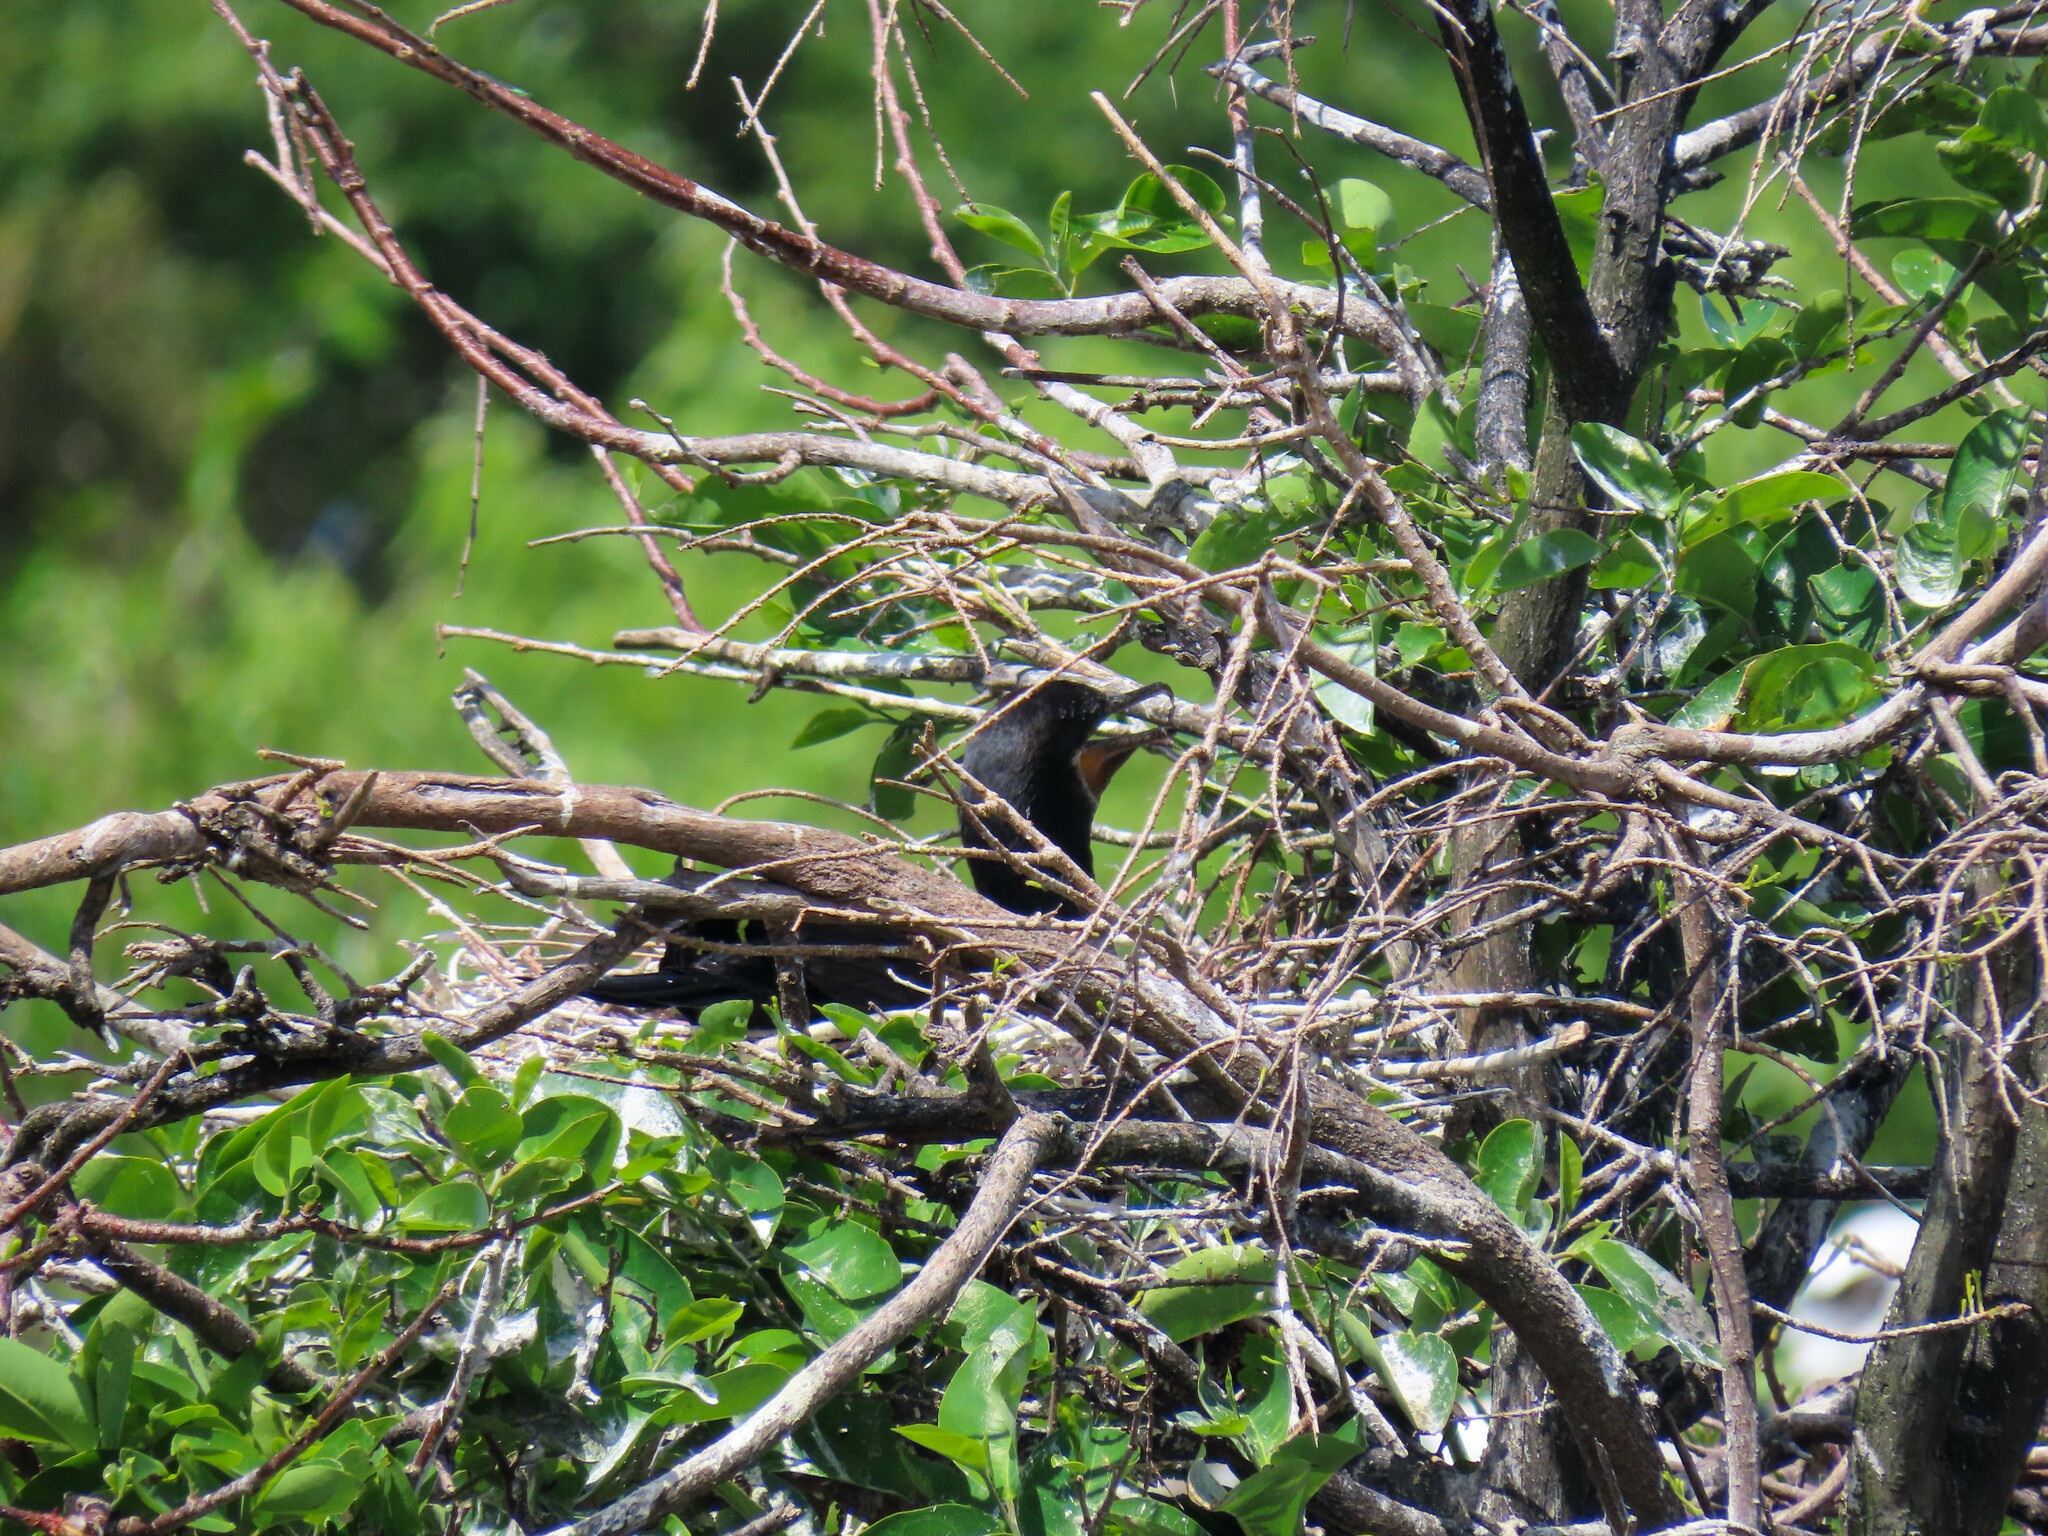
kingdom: Animalia
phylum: Chordata
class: Aves
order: Suliformes
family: Phalacrocoracidae
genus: Phalacrocorax
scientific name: Phalacrocorax brasilianus
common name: Neotropic cormorant
